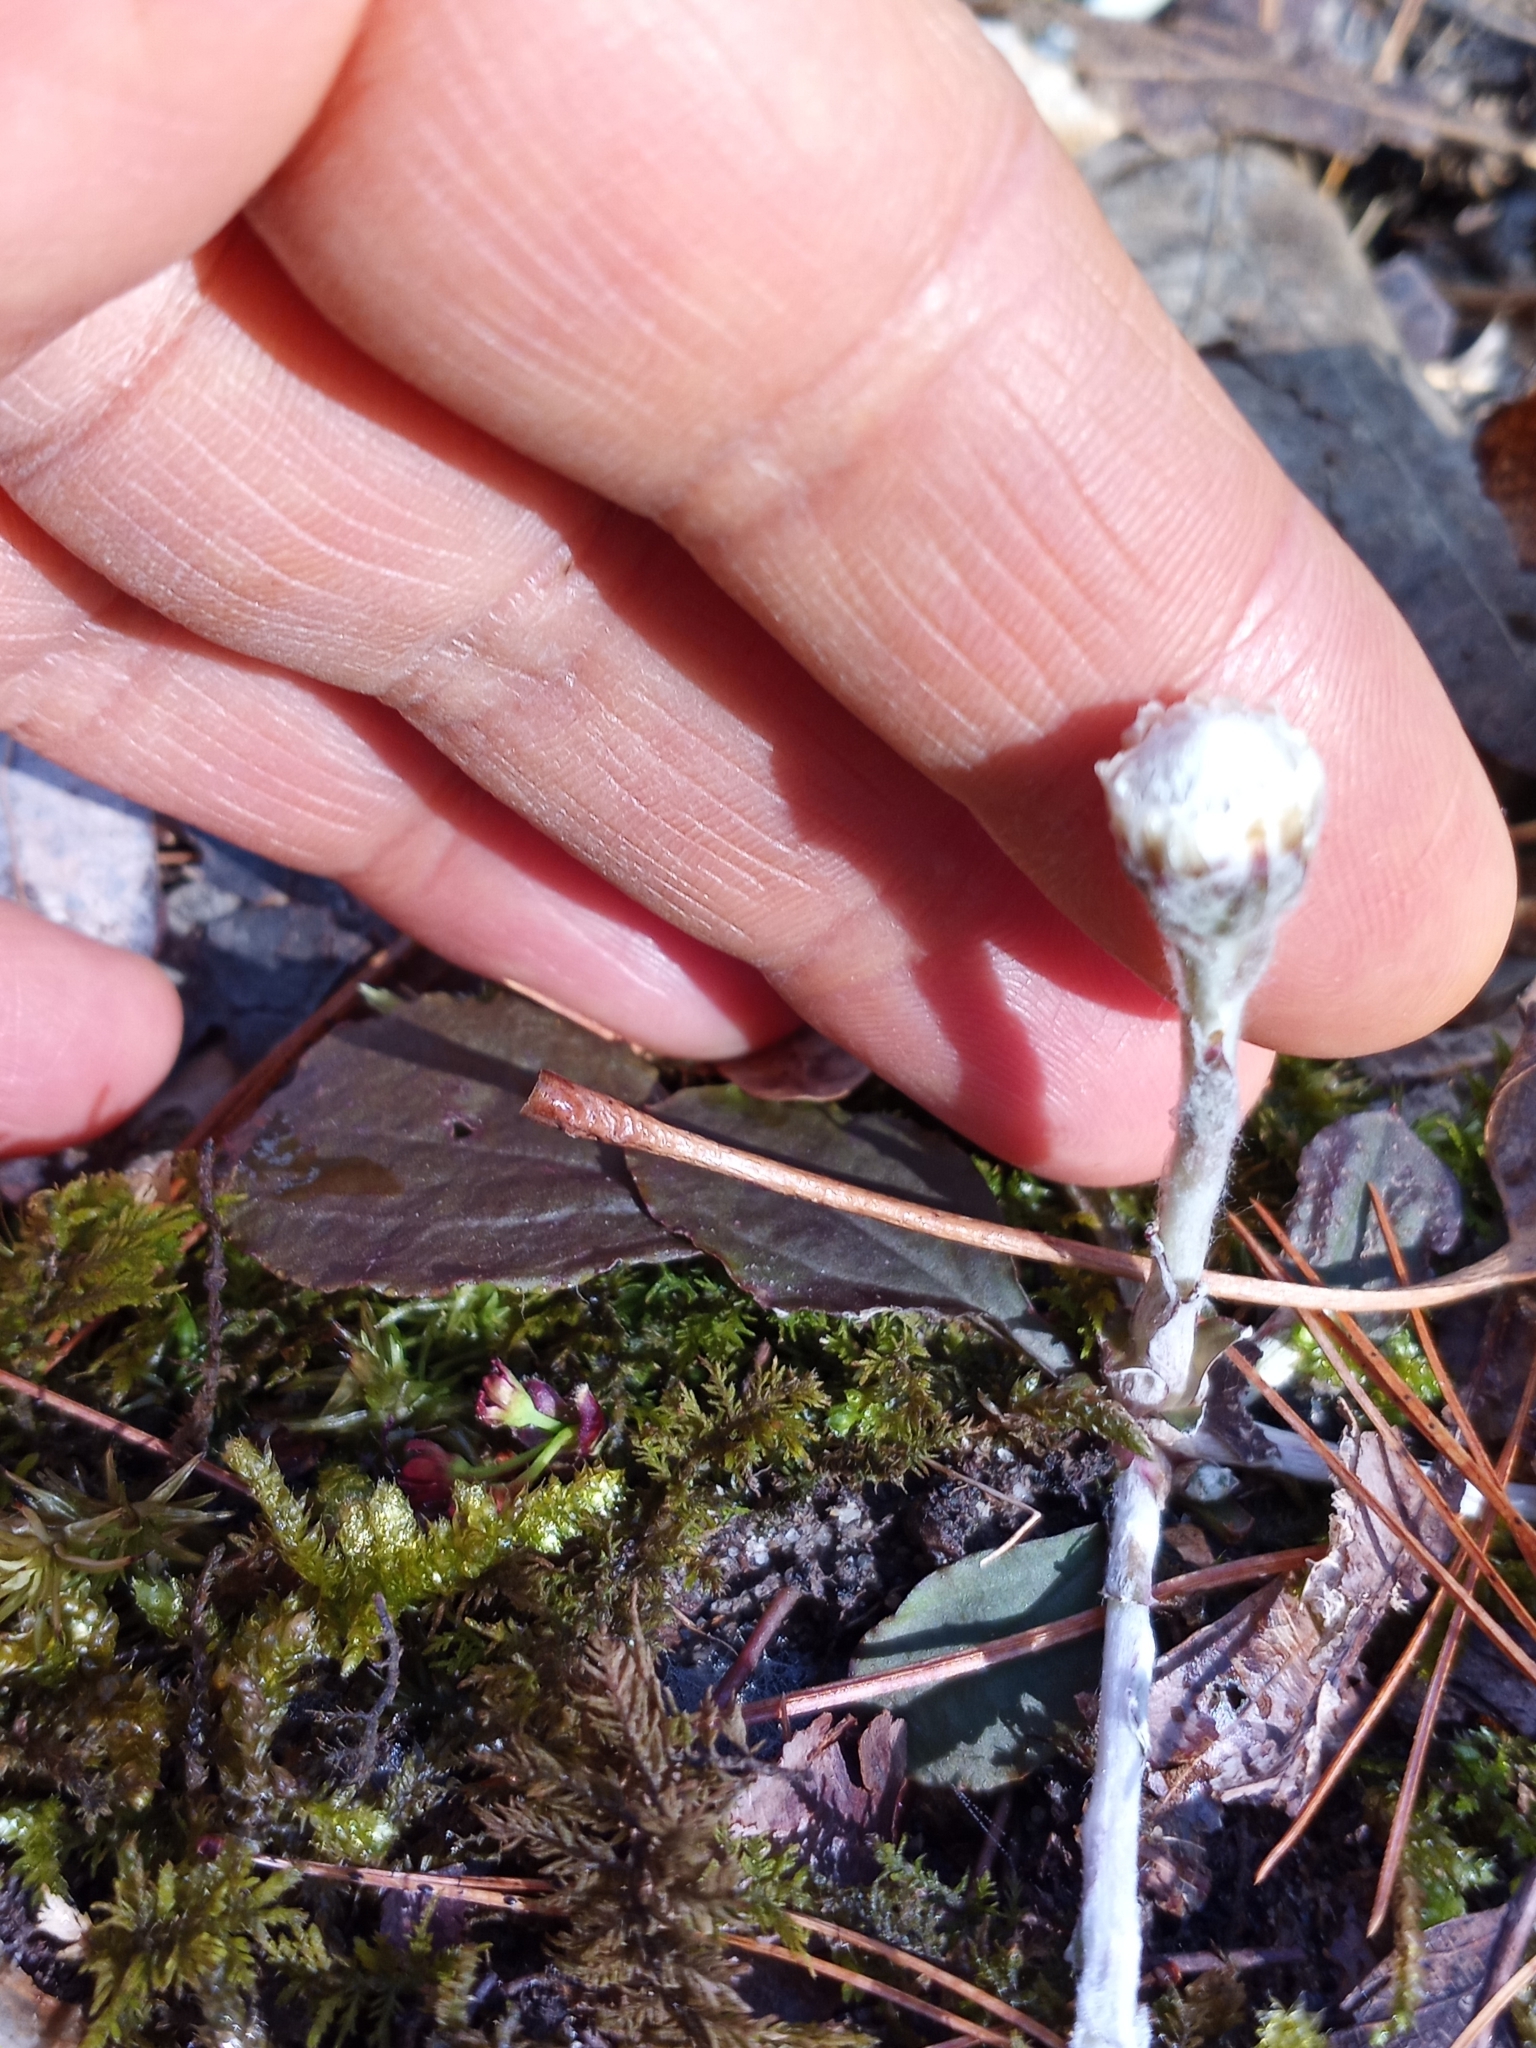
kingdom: Plantae
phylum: Tracheophyta
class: Magnoliopsida
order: Asterales
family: Asteraceae
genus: Antennaria
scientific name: Antennaria solitaria
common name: Single-head pussytoes
